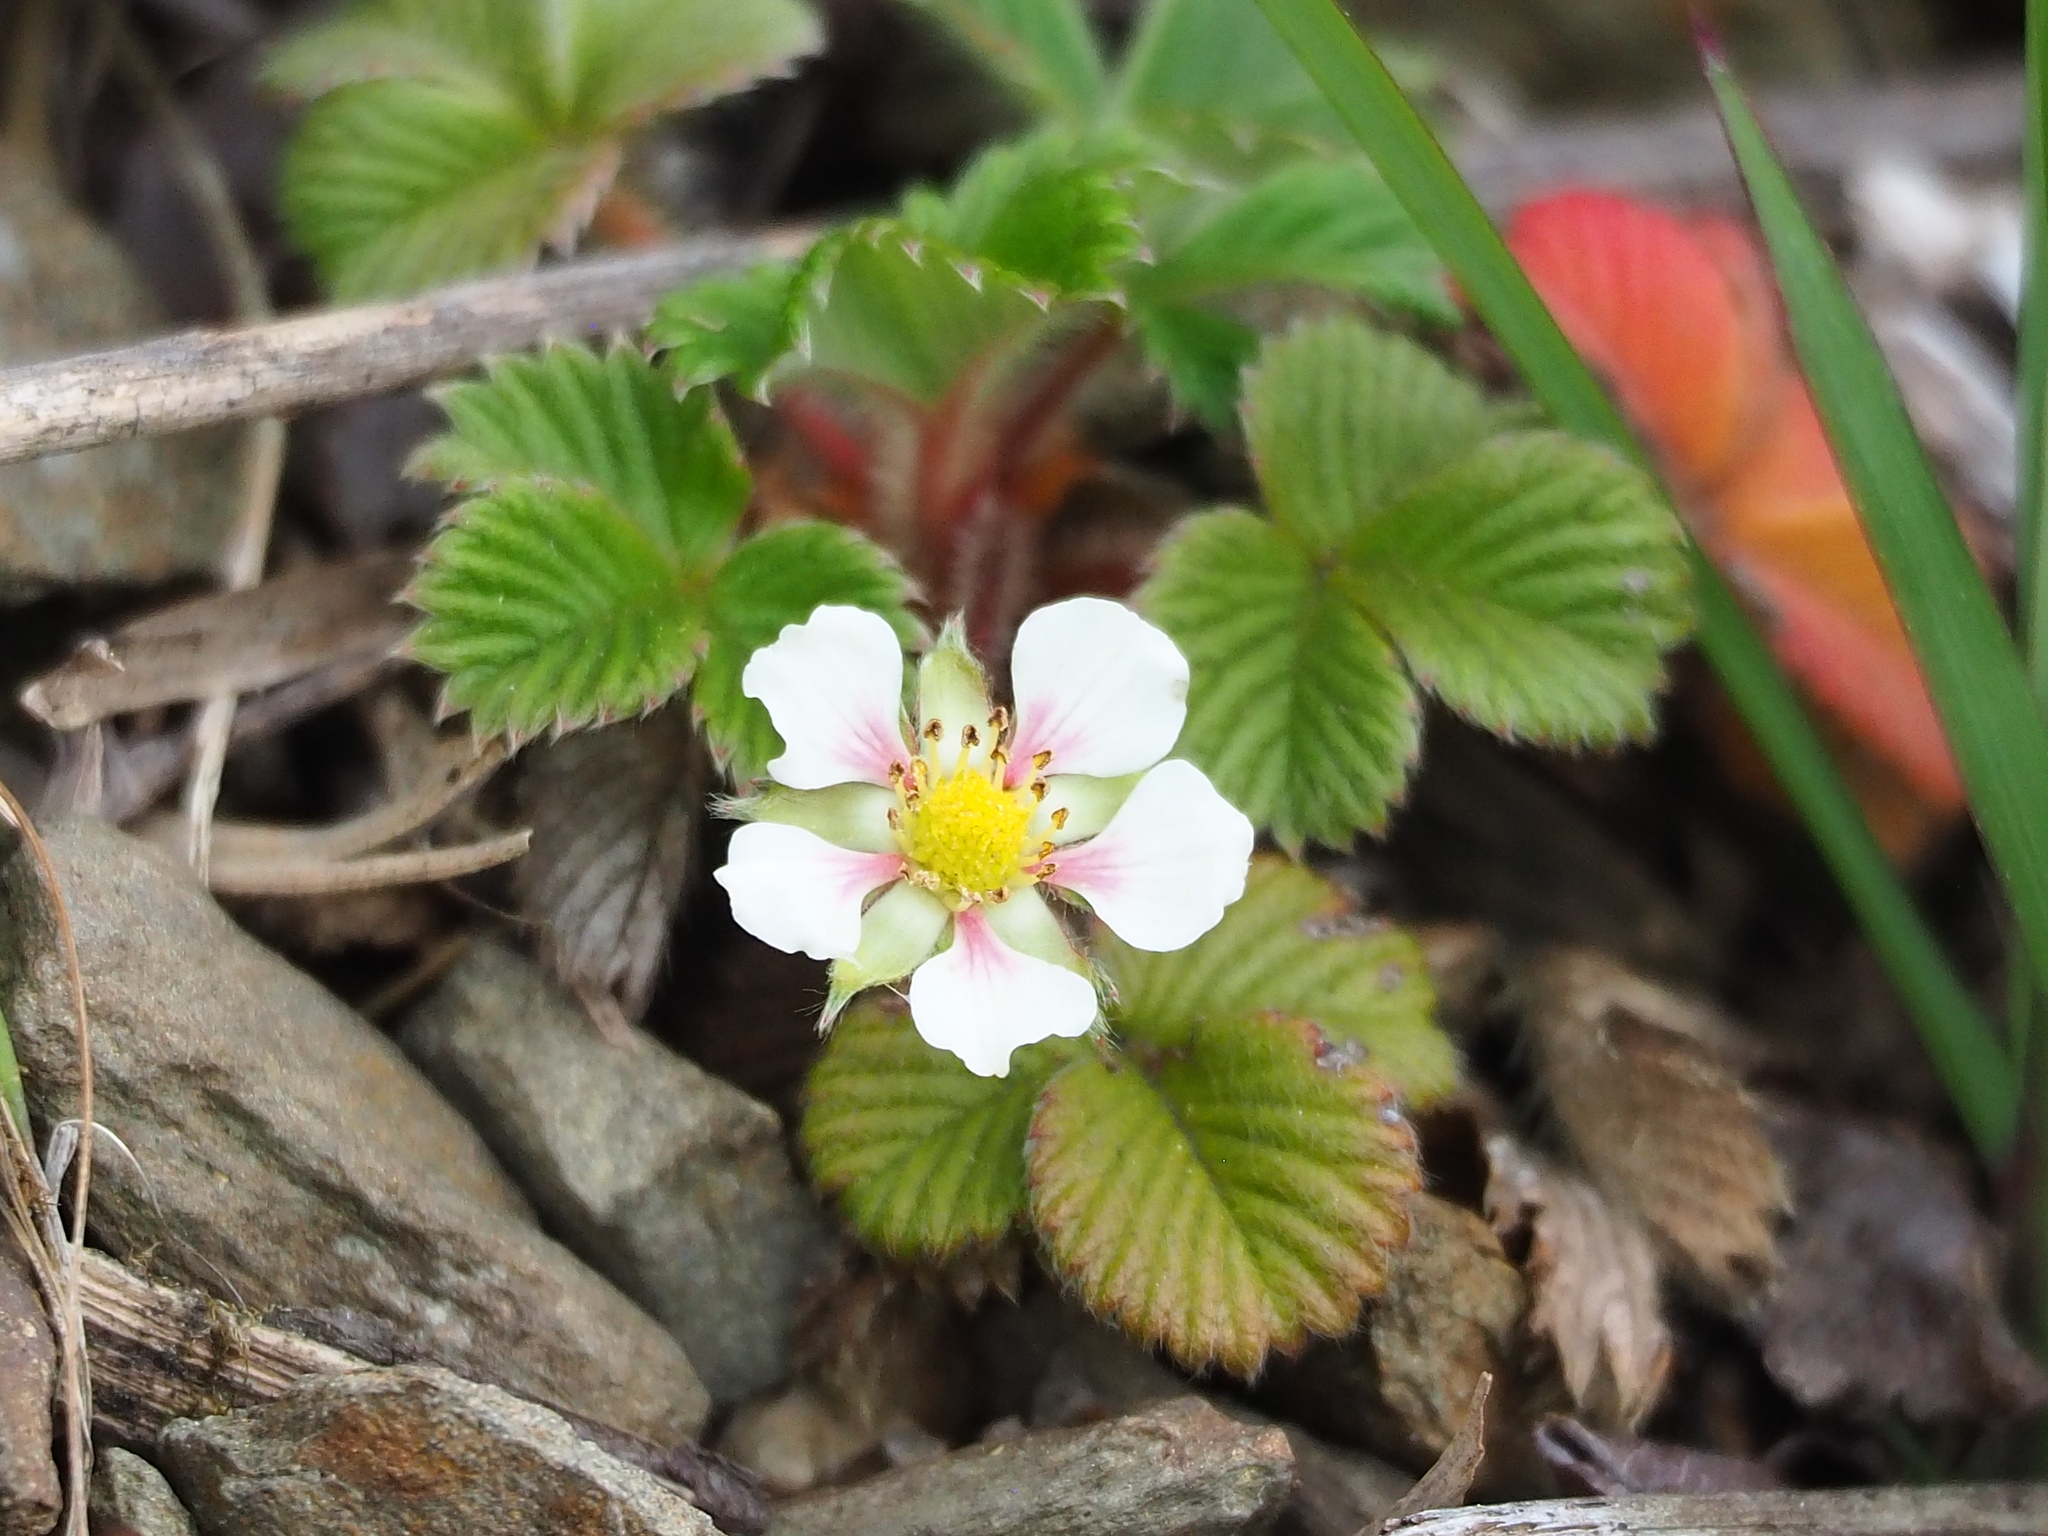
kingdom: Plantae
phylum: Tracheophyta
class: Magnoliopsida
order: Rosales
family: Rosaceae
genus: Fragaria
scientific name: Fragaria nilgerrensis
